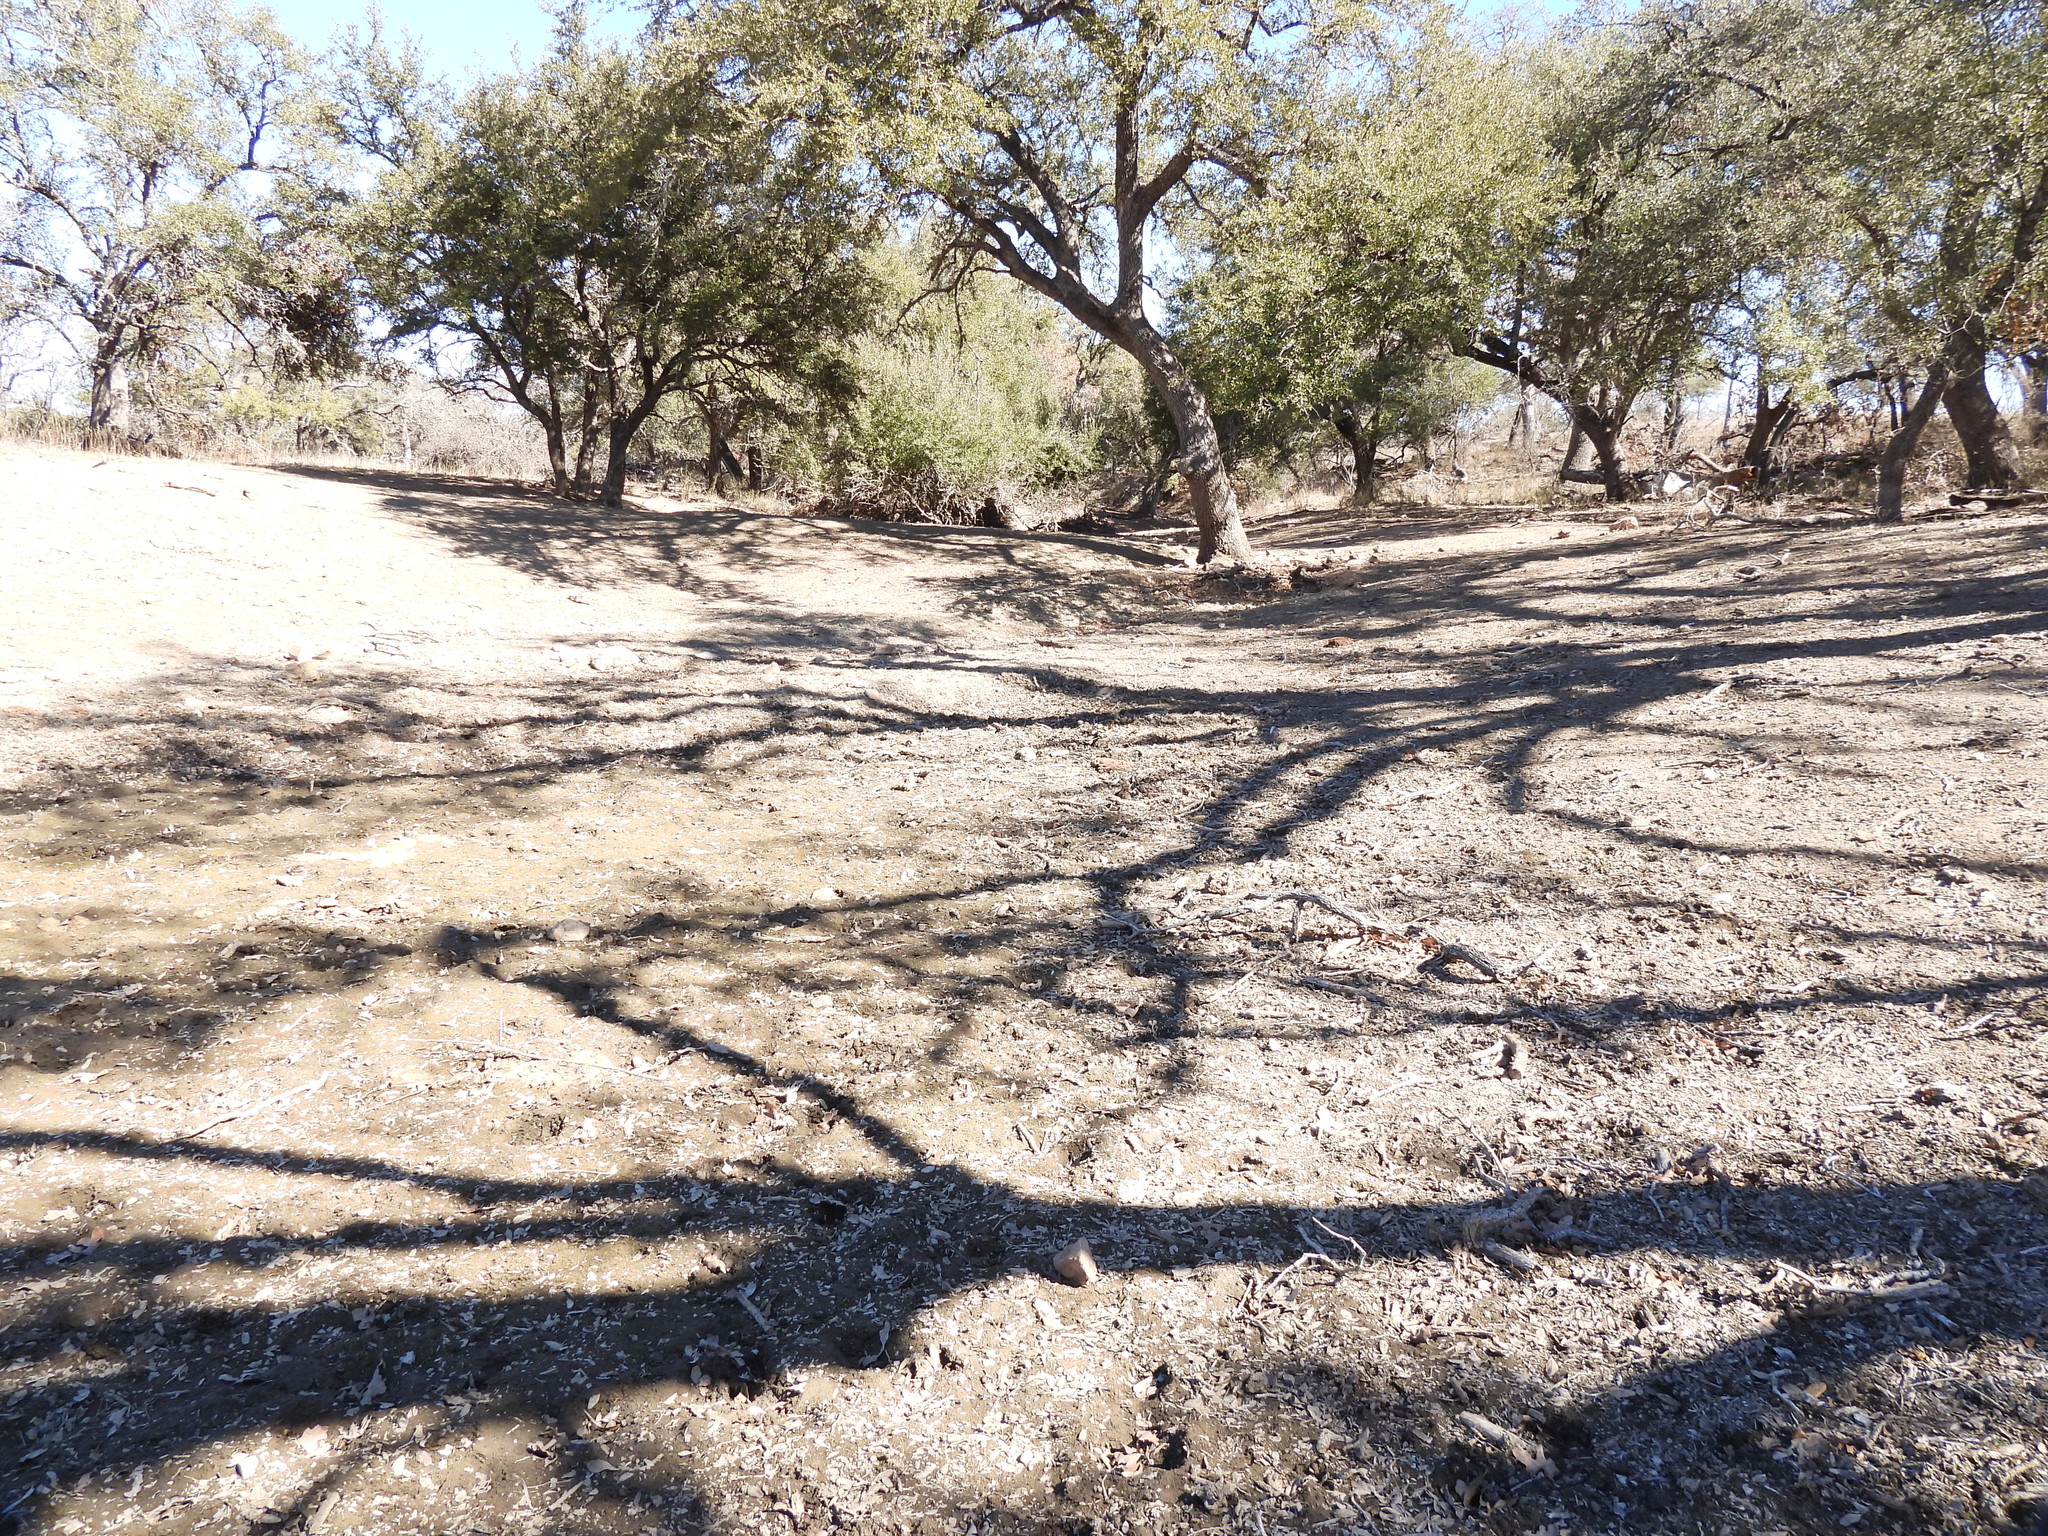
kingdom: Animalia
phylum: Arthropoda
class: Insecta
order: Lepidoptera
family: Nymphalidae
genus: Polygonia
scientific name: Polygonia interrogationis
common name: Question mark
